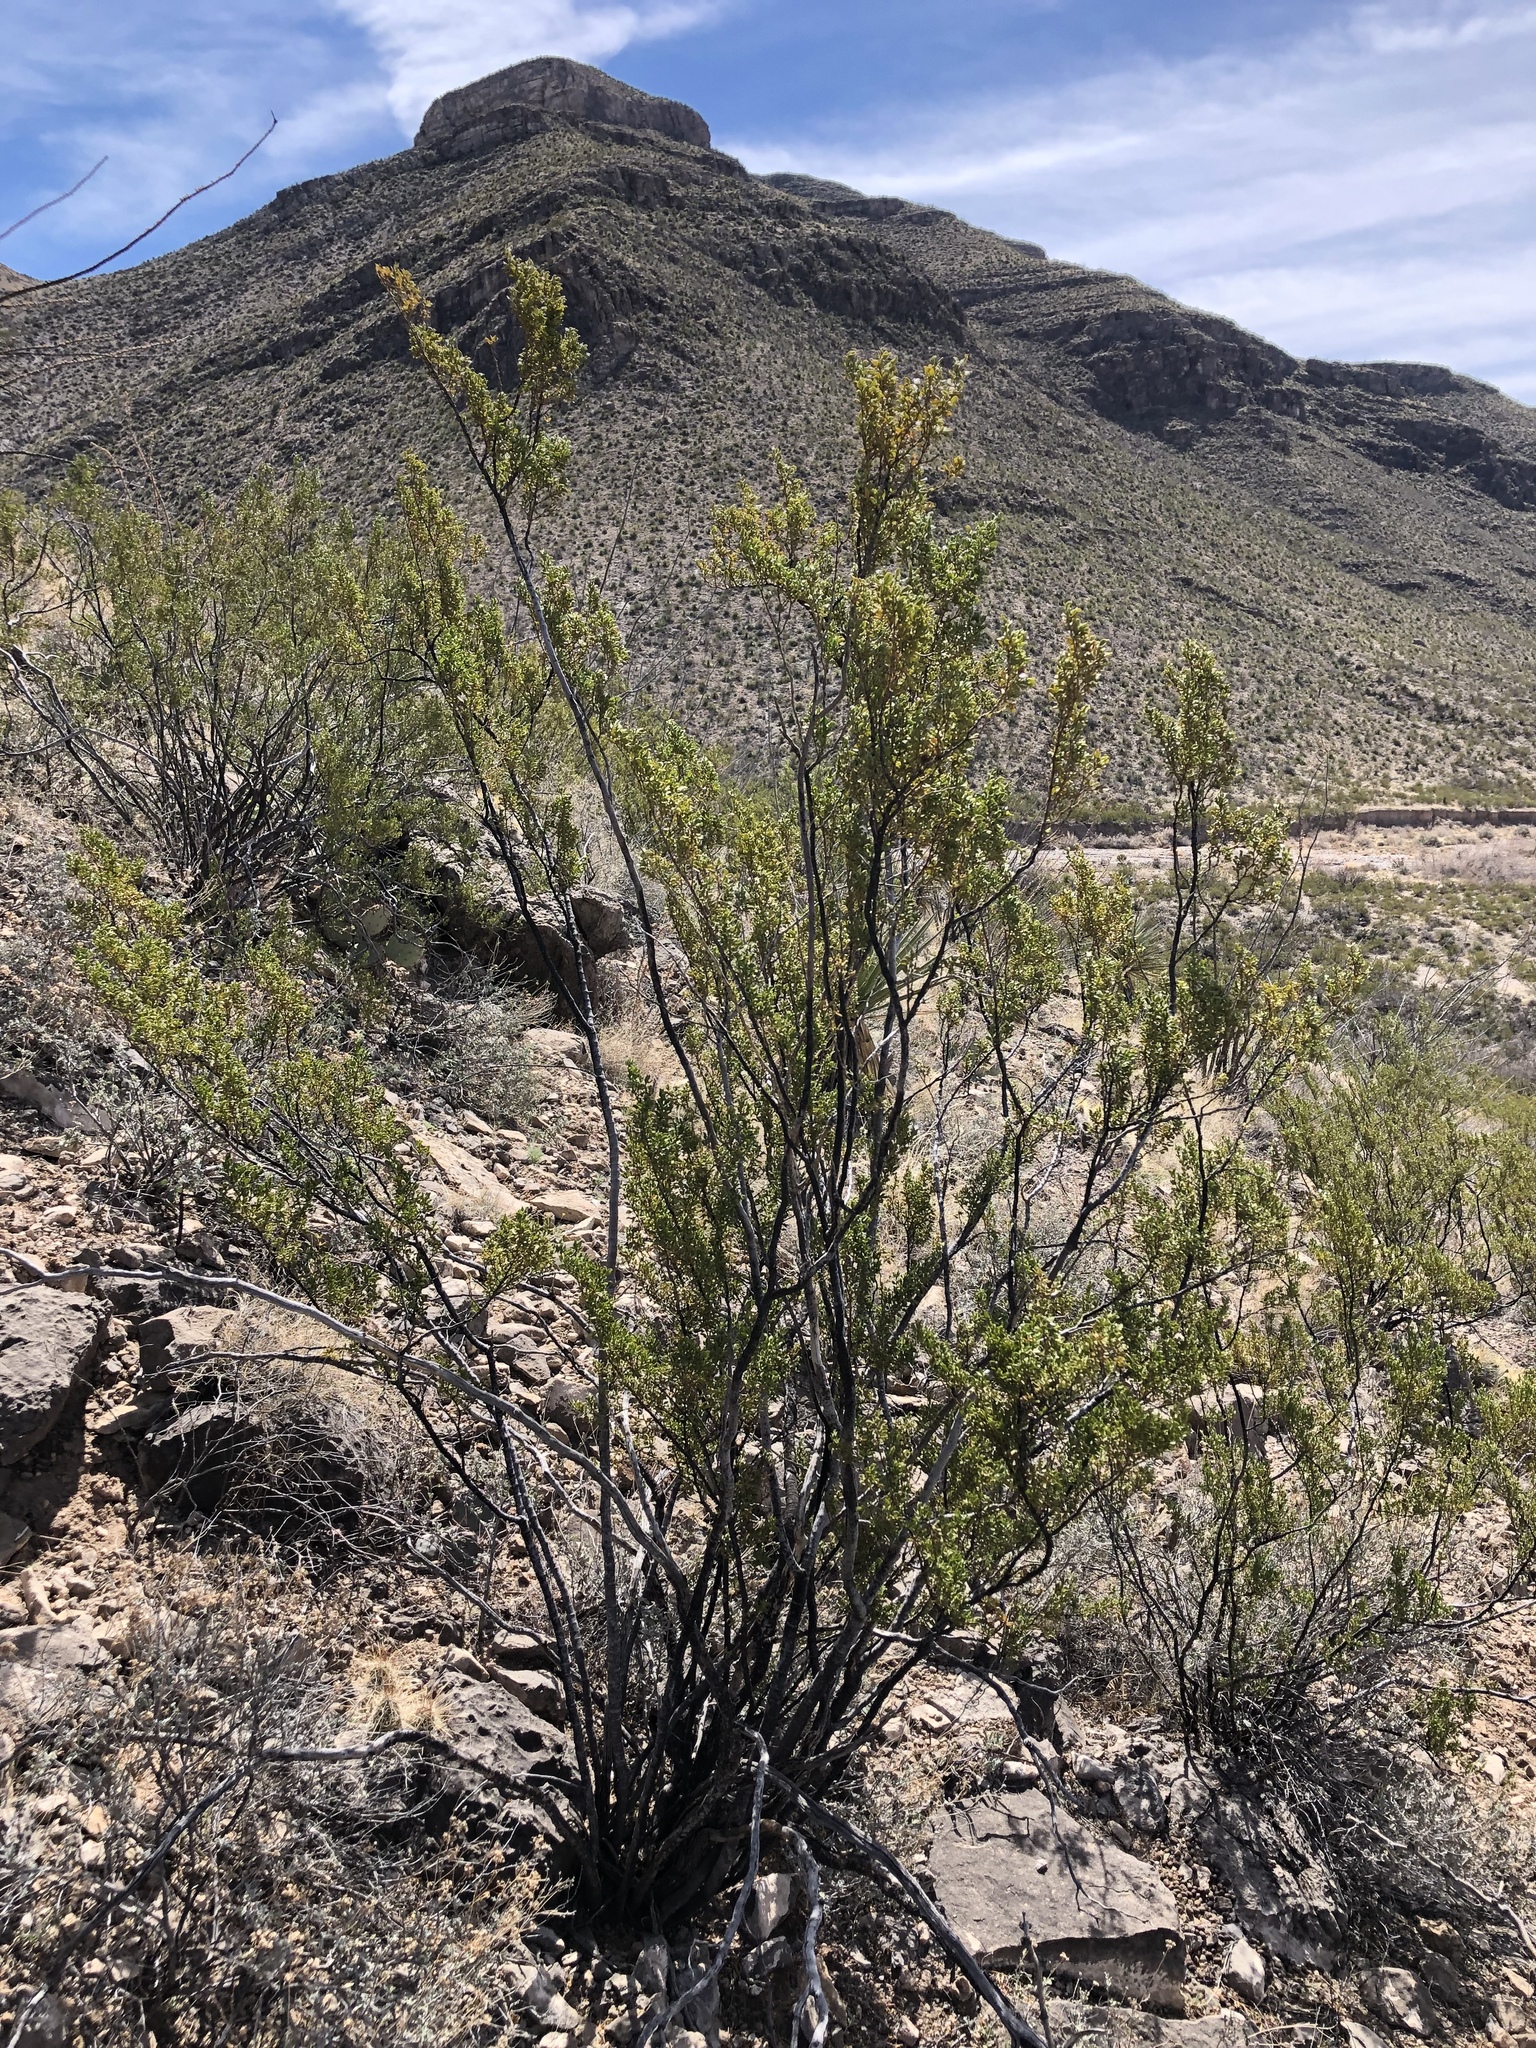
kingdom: Plantae
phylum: Tracheophyta
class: Magnoliopsida
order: Zygophyllales
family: Zygophyllaceae
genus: Larrea
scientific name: Larrea tridentata
